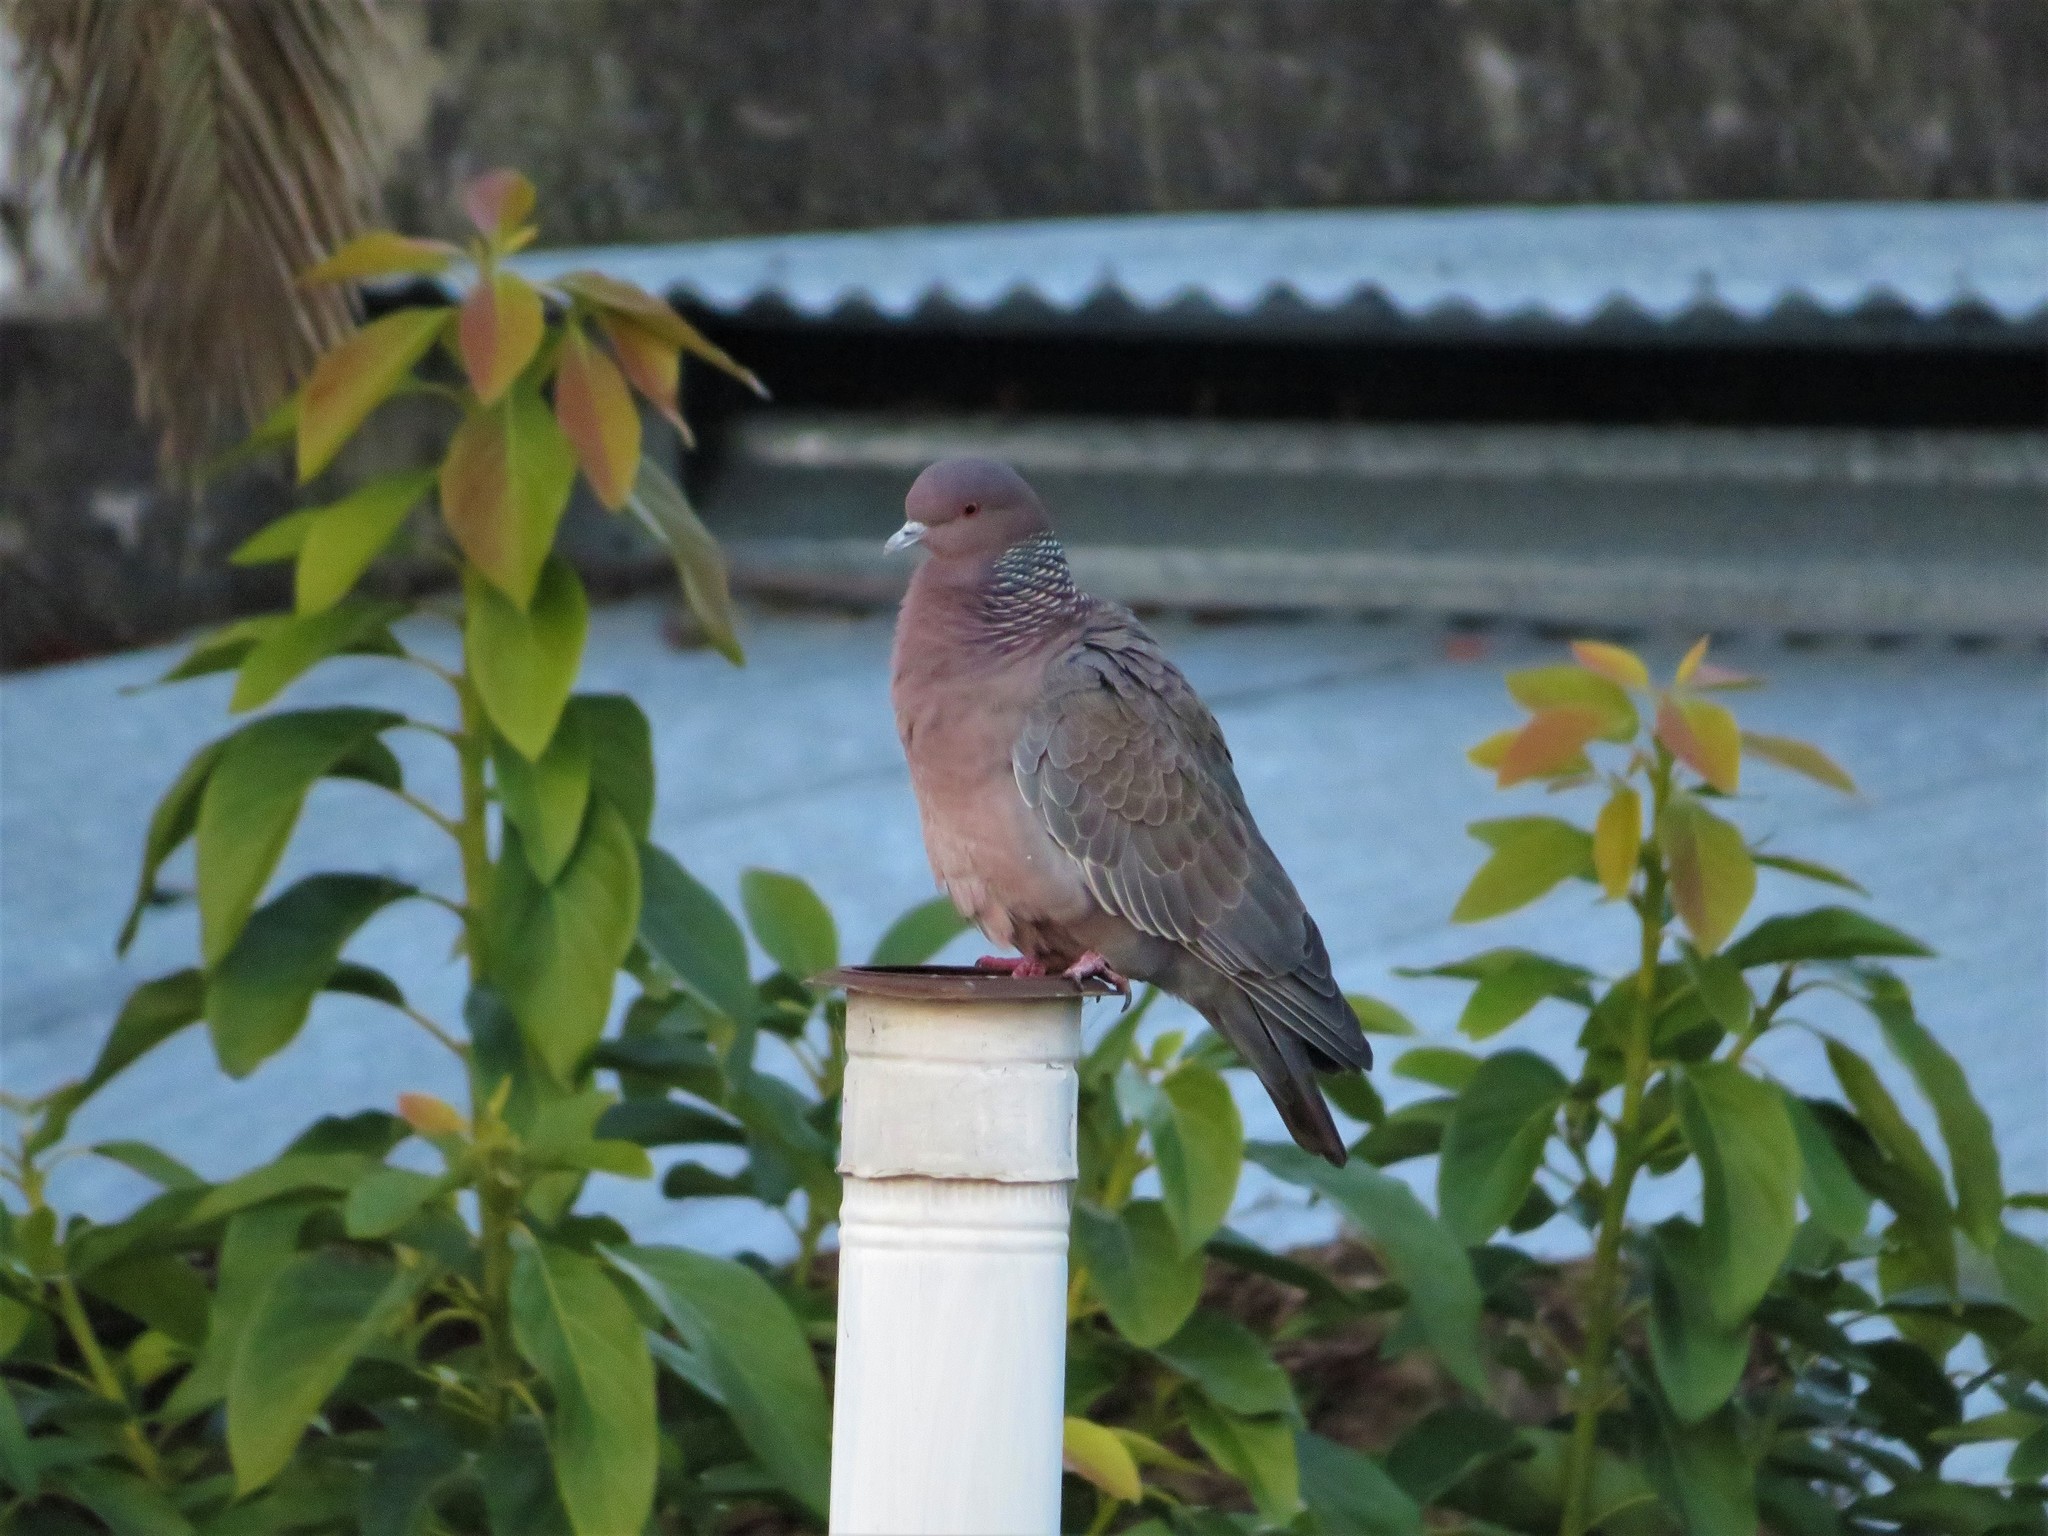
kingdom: Animalia
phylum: Chordata
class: Aves
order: Columbiformes
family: Columbidae
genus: Patagioenas
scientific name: Patagioenas picazuro
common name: Picazuro pigeon
